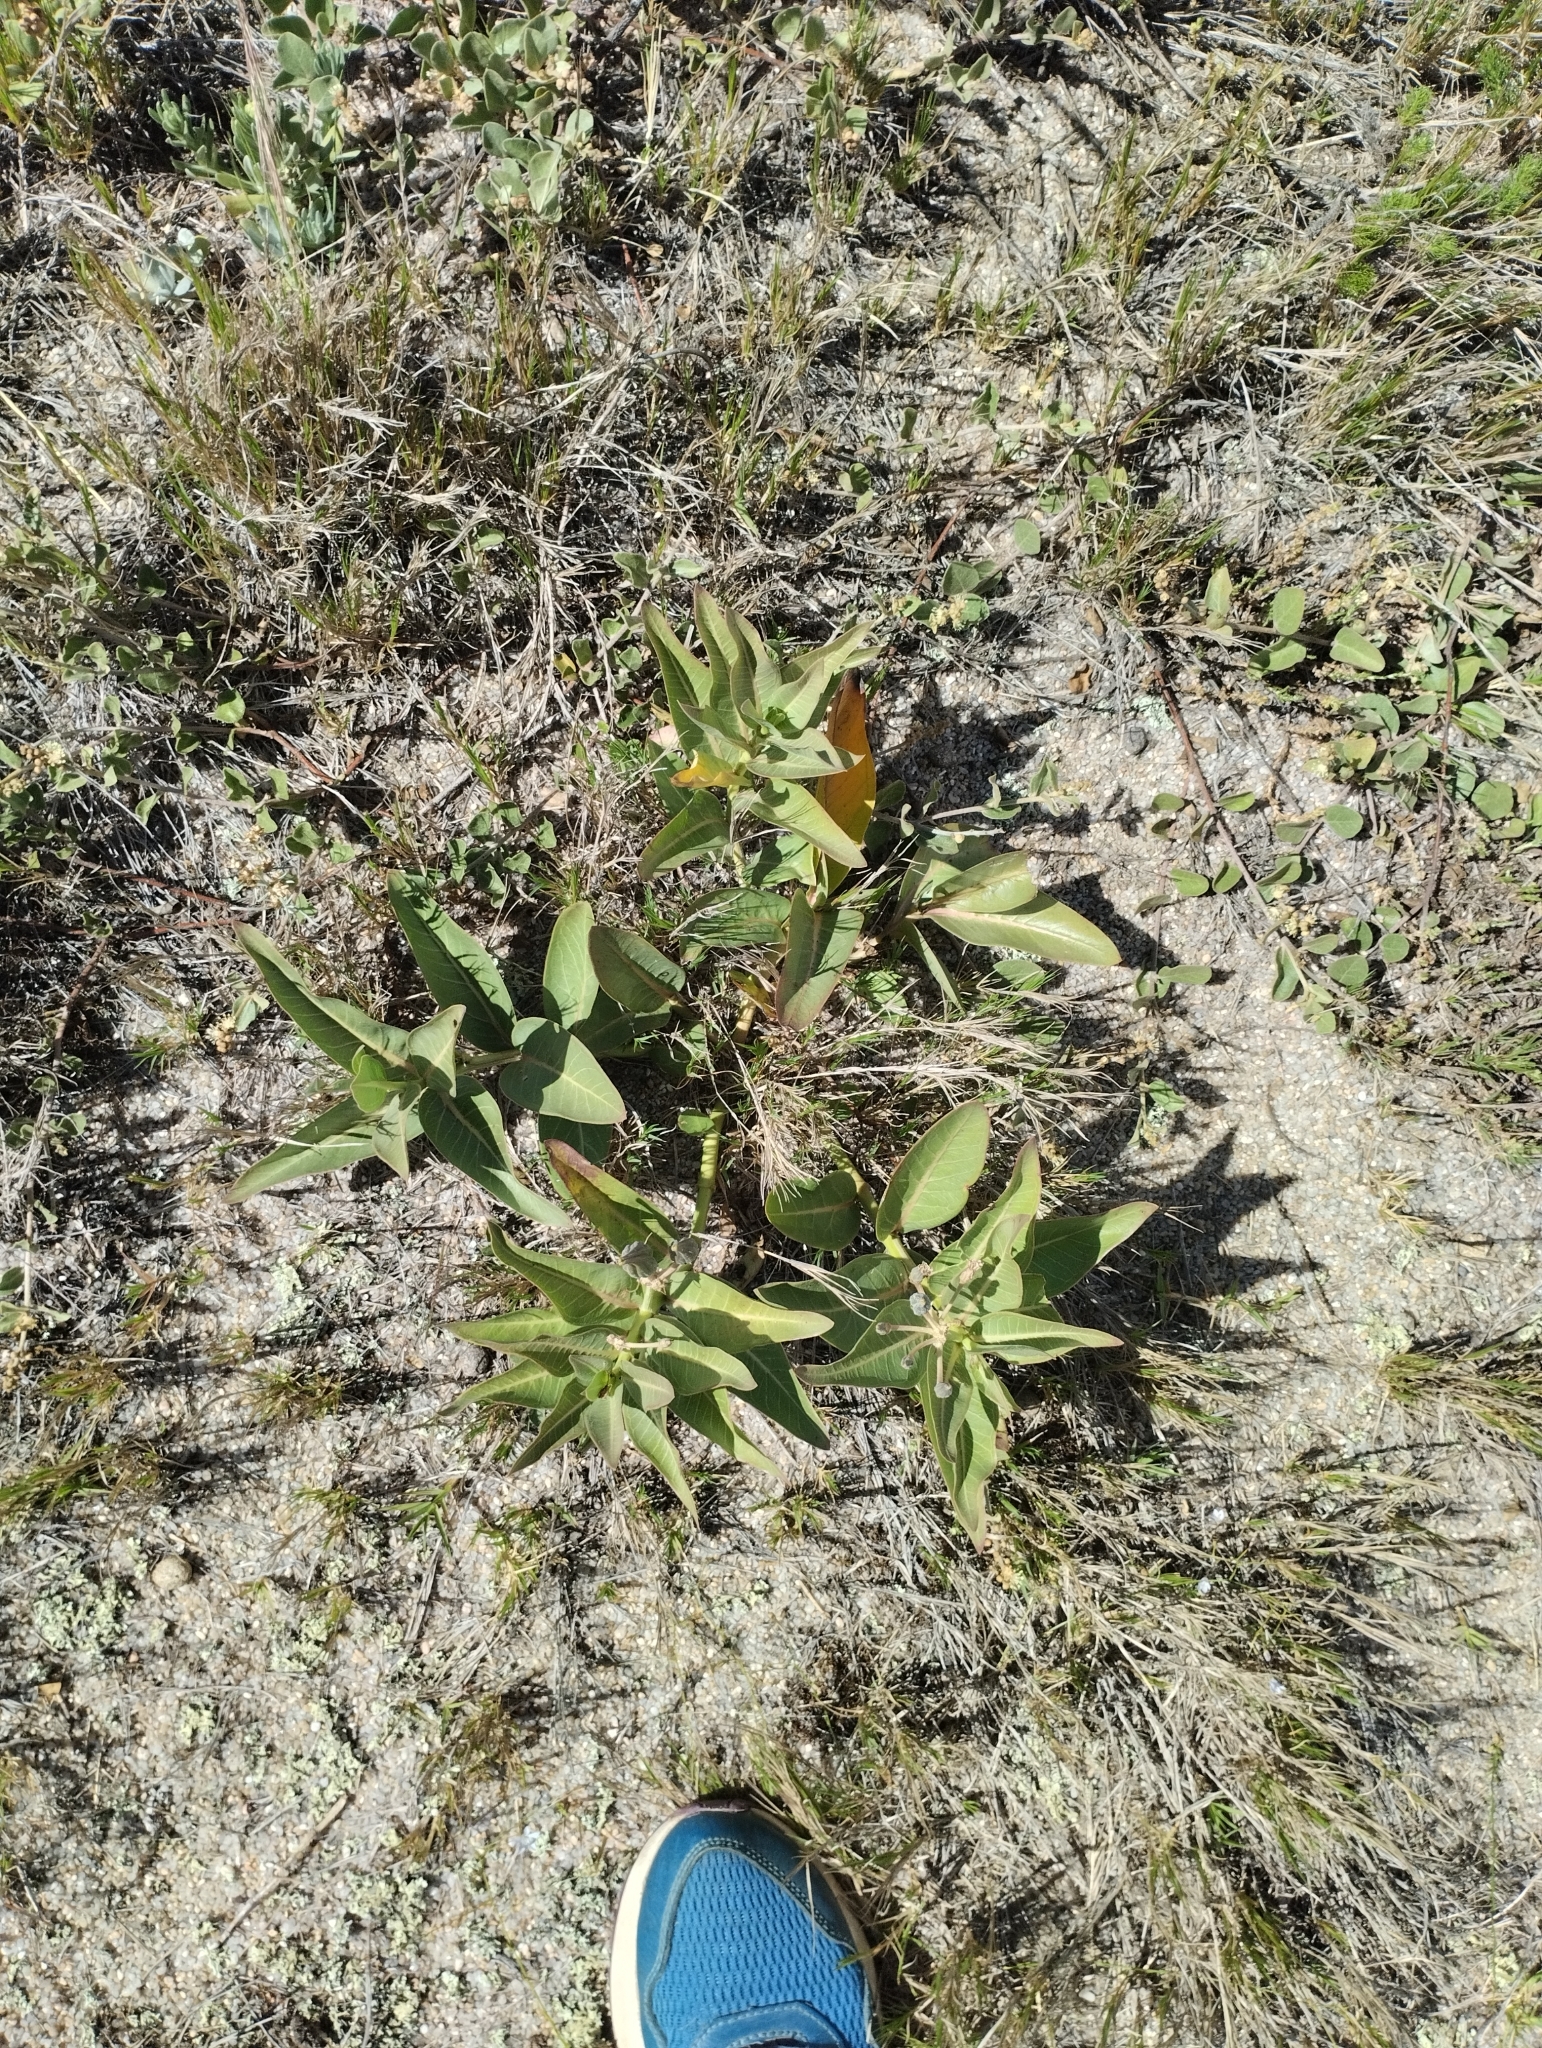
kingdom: Plantae
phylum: Tracheophyta
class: Magnoliopsida
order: Gentianales
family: Apocynaceae
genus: Asclepias
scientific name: Asclepias candida
